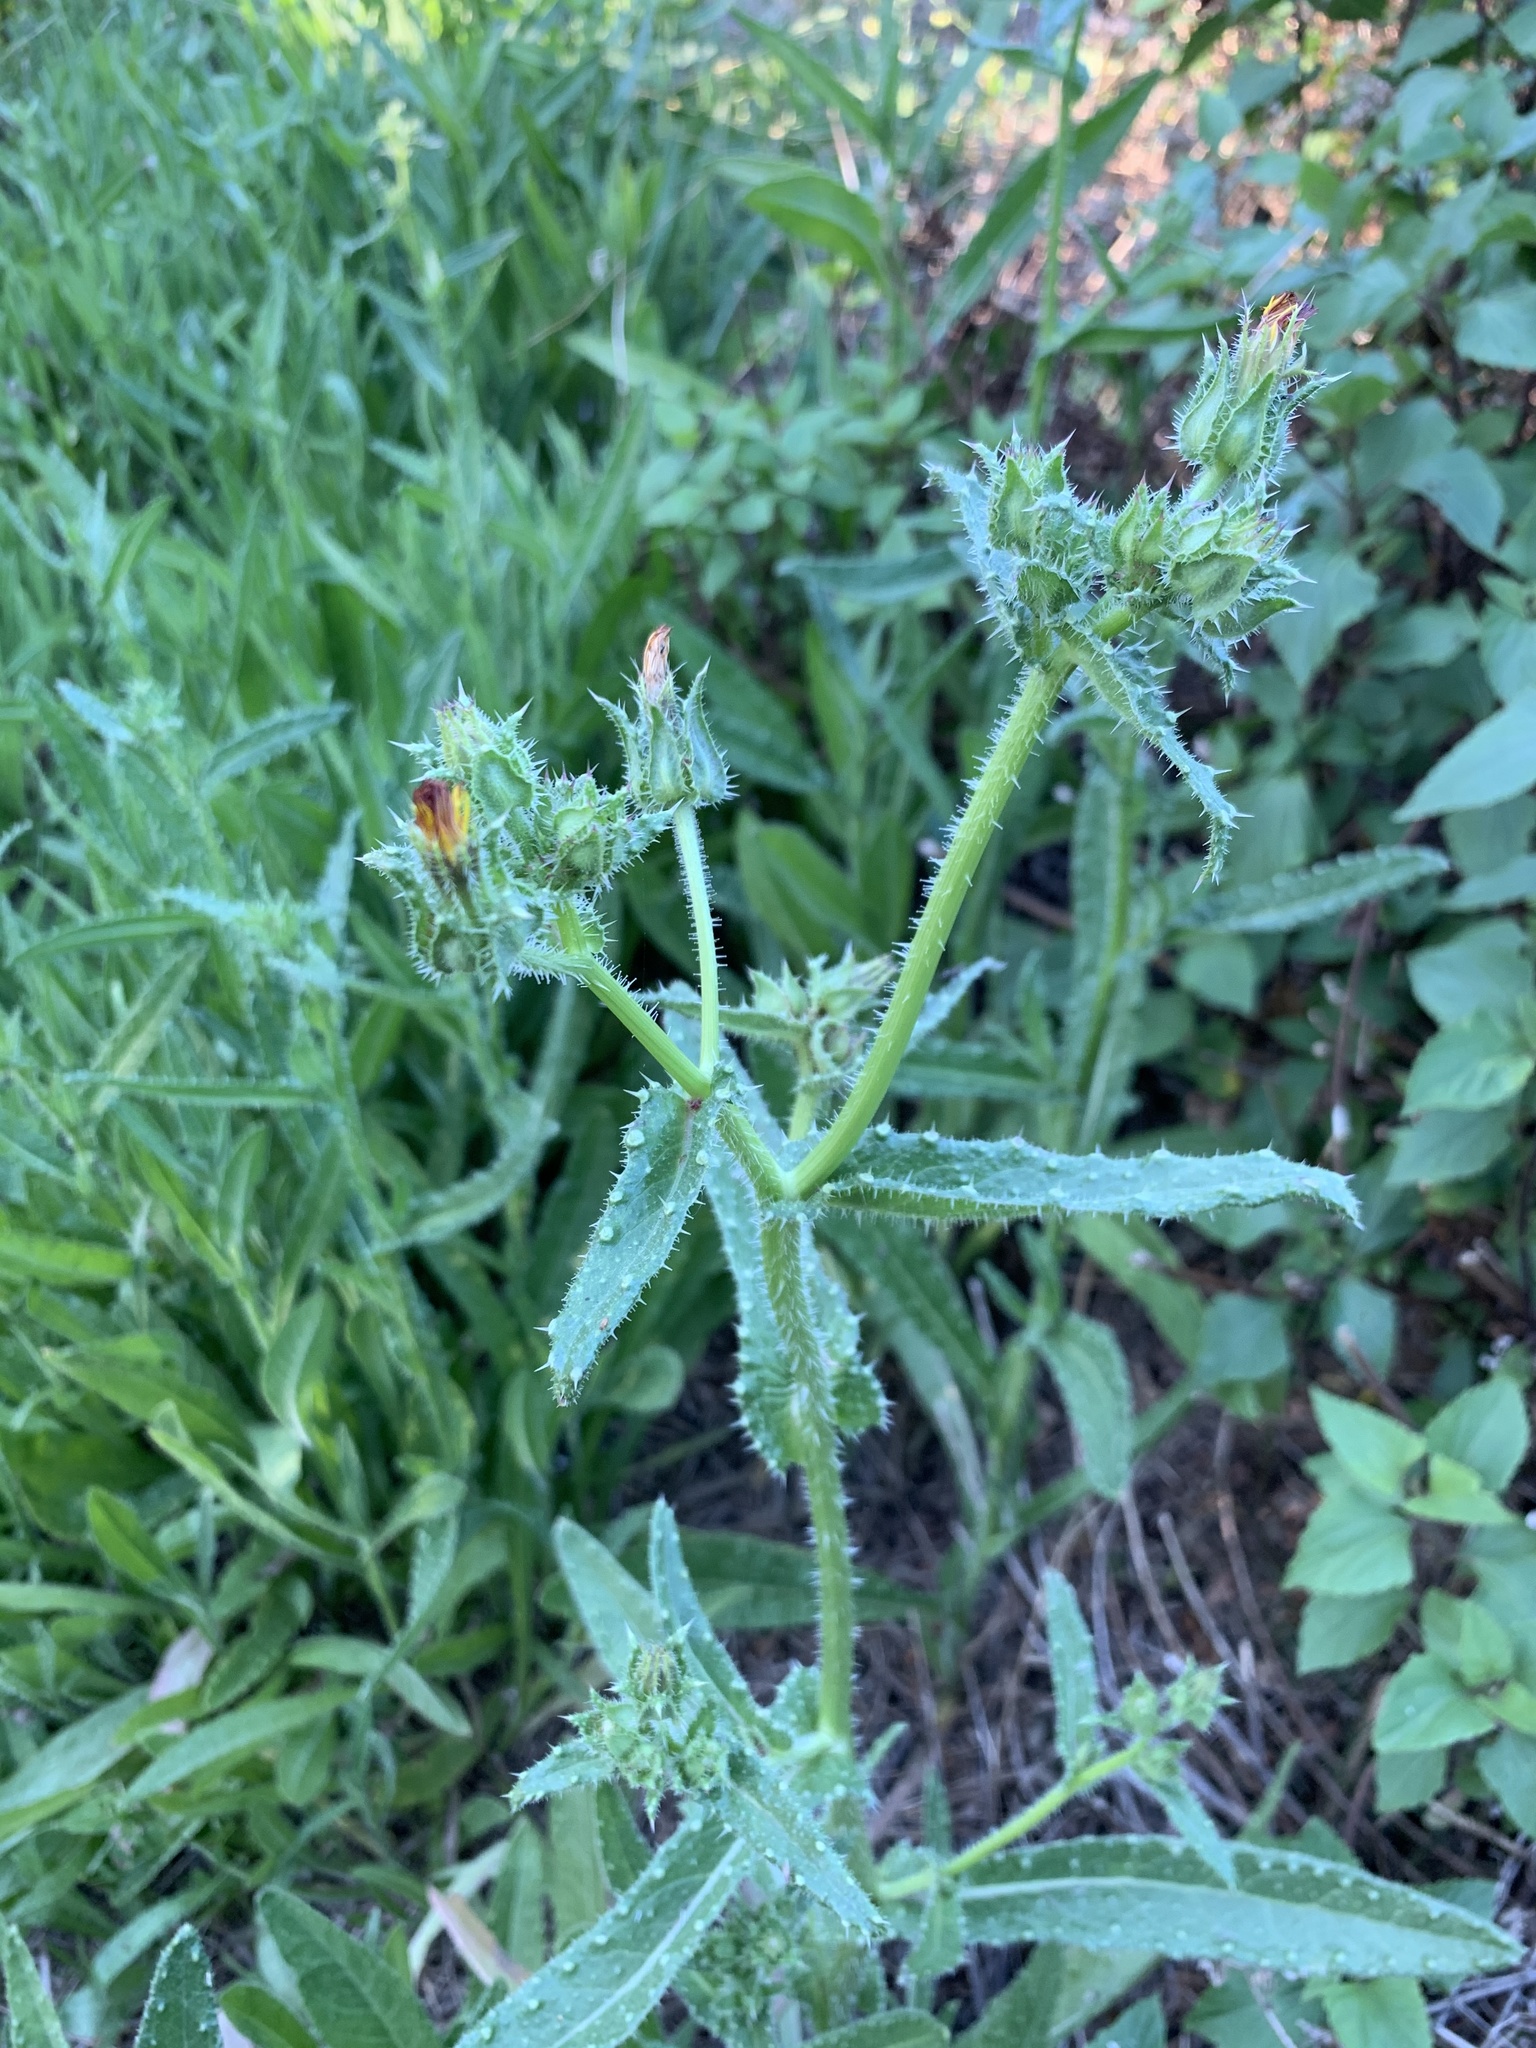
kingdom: Plantae
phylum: Tracheophyta
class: Magnoliopsida
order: Asterales
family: Asteraceae
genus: Helminthotheca
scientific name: Helminthotheca echioides
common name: Ox-tongue
